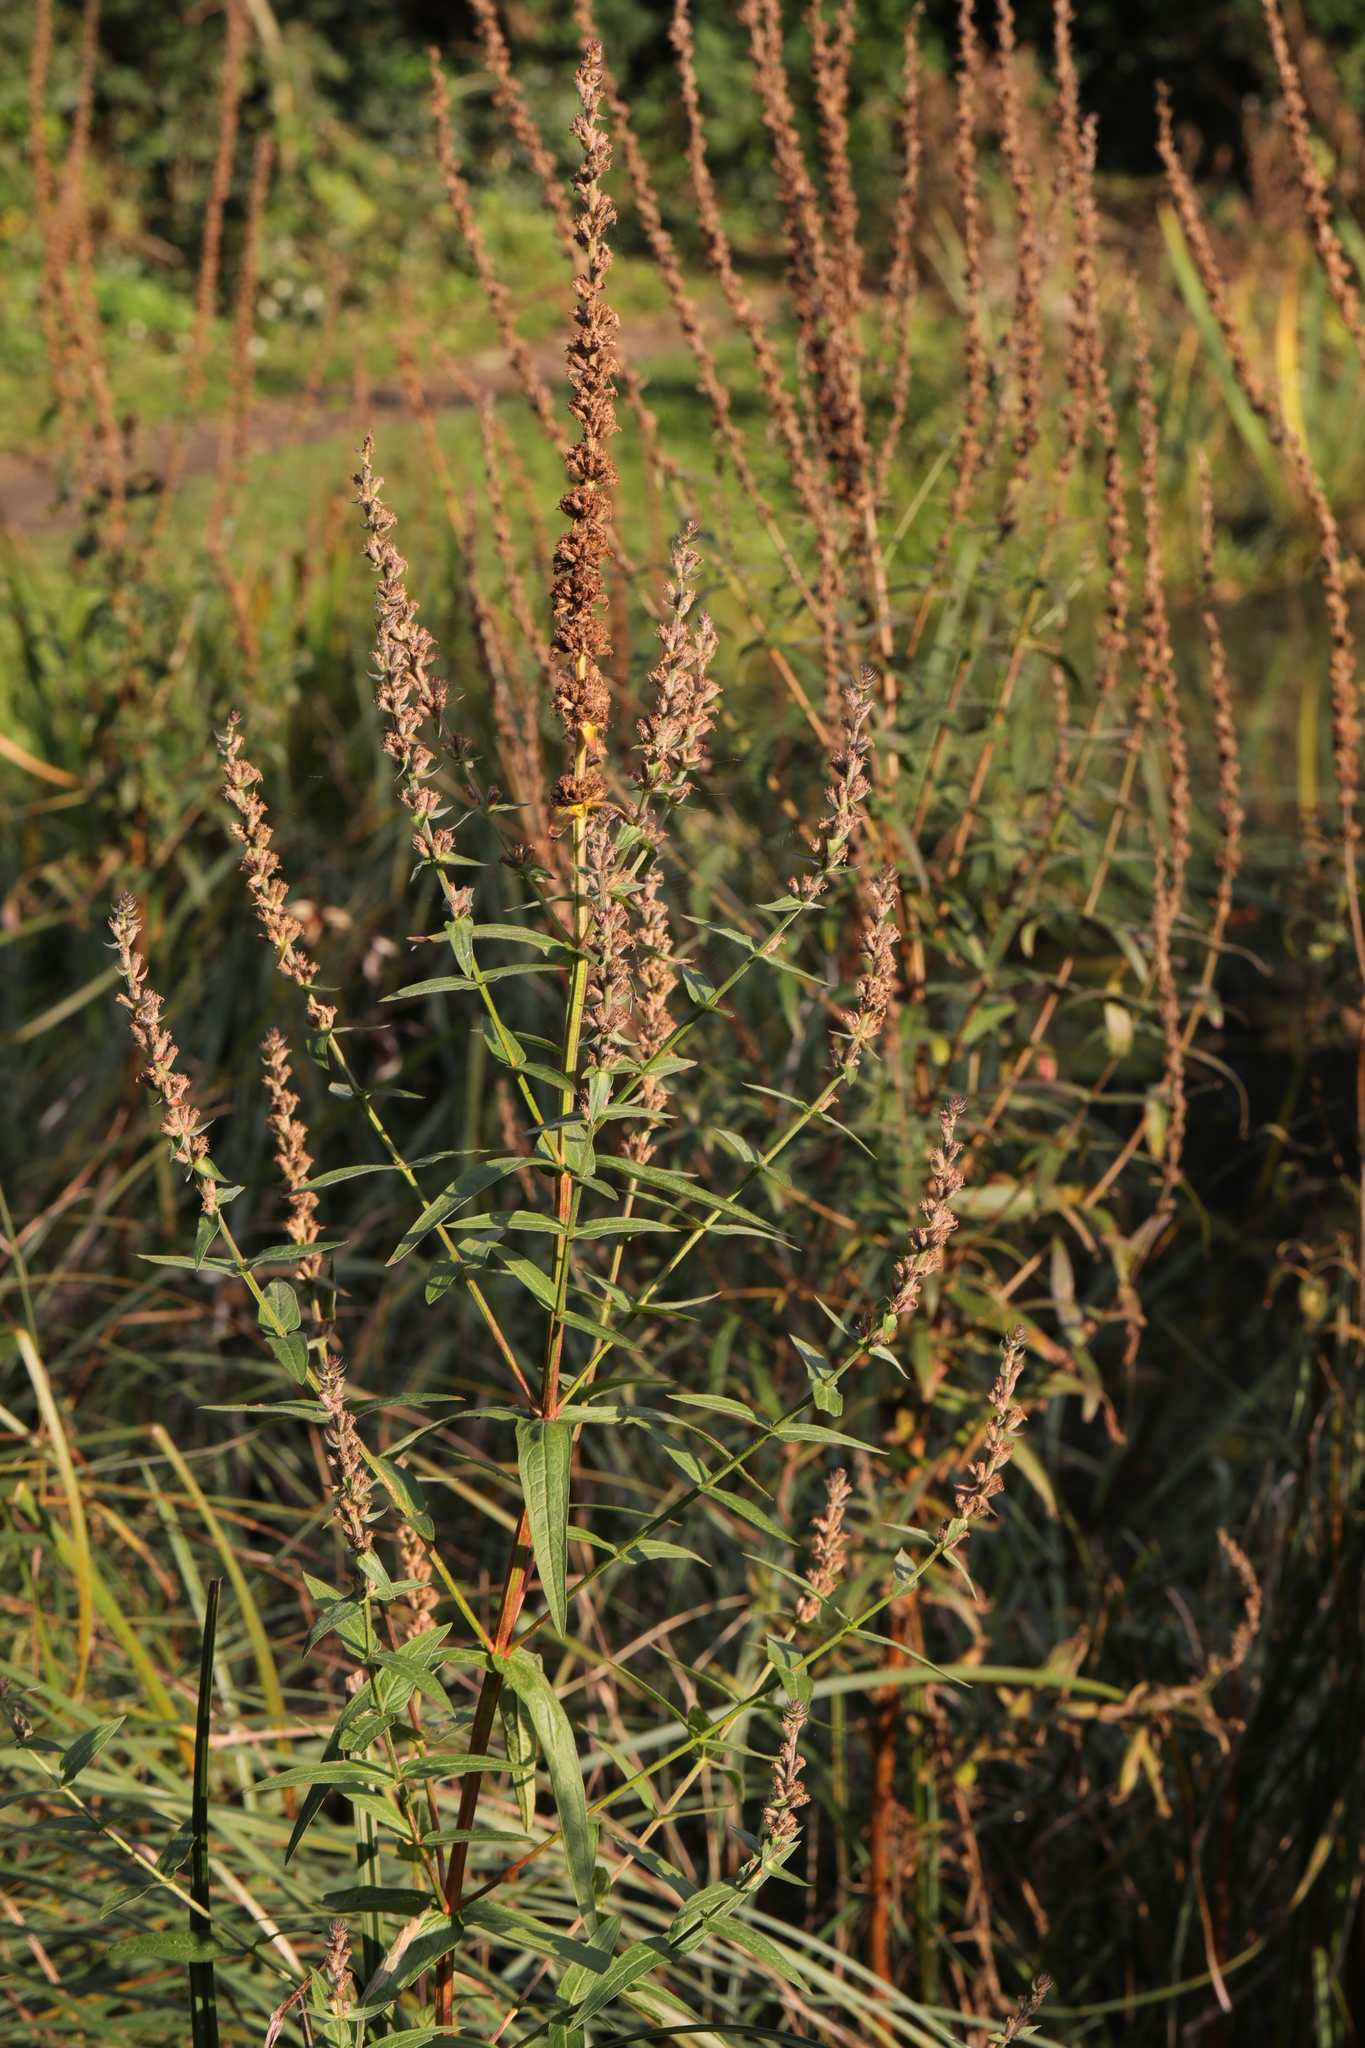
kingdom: Plantae
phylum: Tracheophyta
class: Magnoliopsida
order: Myrtales
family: Lythraceae
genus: Lythrum
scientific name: Lythrum salicaria
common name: Purple loosestrife
